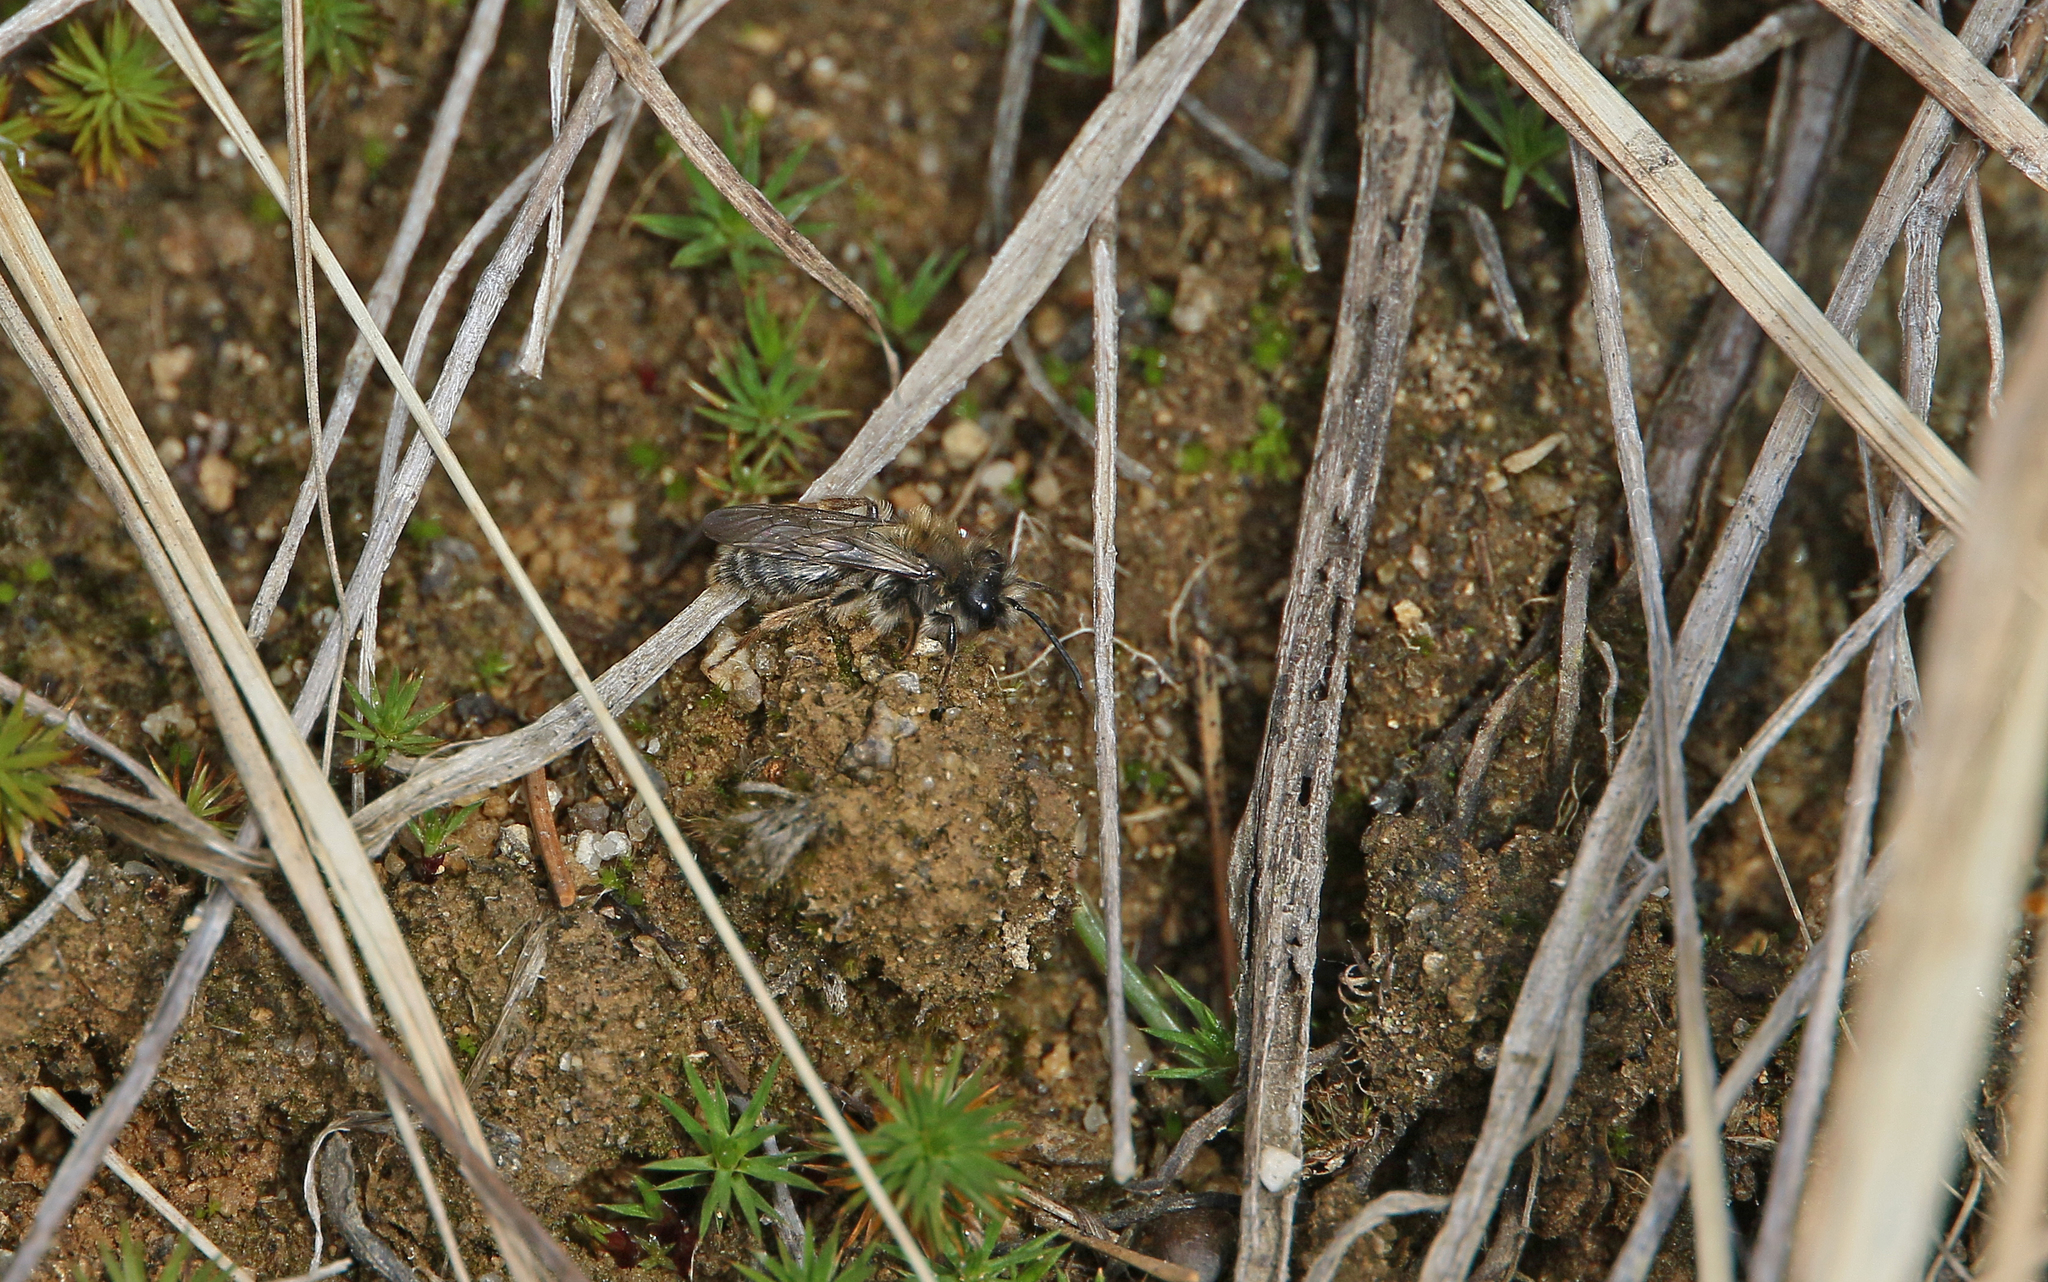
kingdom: Animalia
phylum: Arthropoda
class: Insecta
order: Hymenoptera
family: Andrenidae
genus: Andrena
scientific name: Andrena clarkella
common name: Clarke's mining bee
